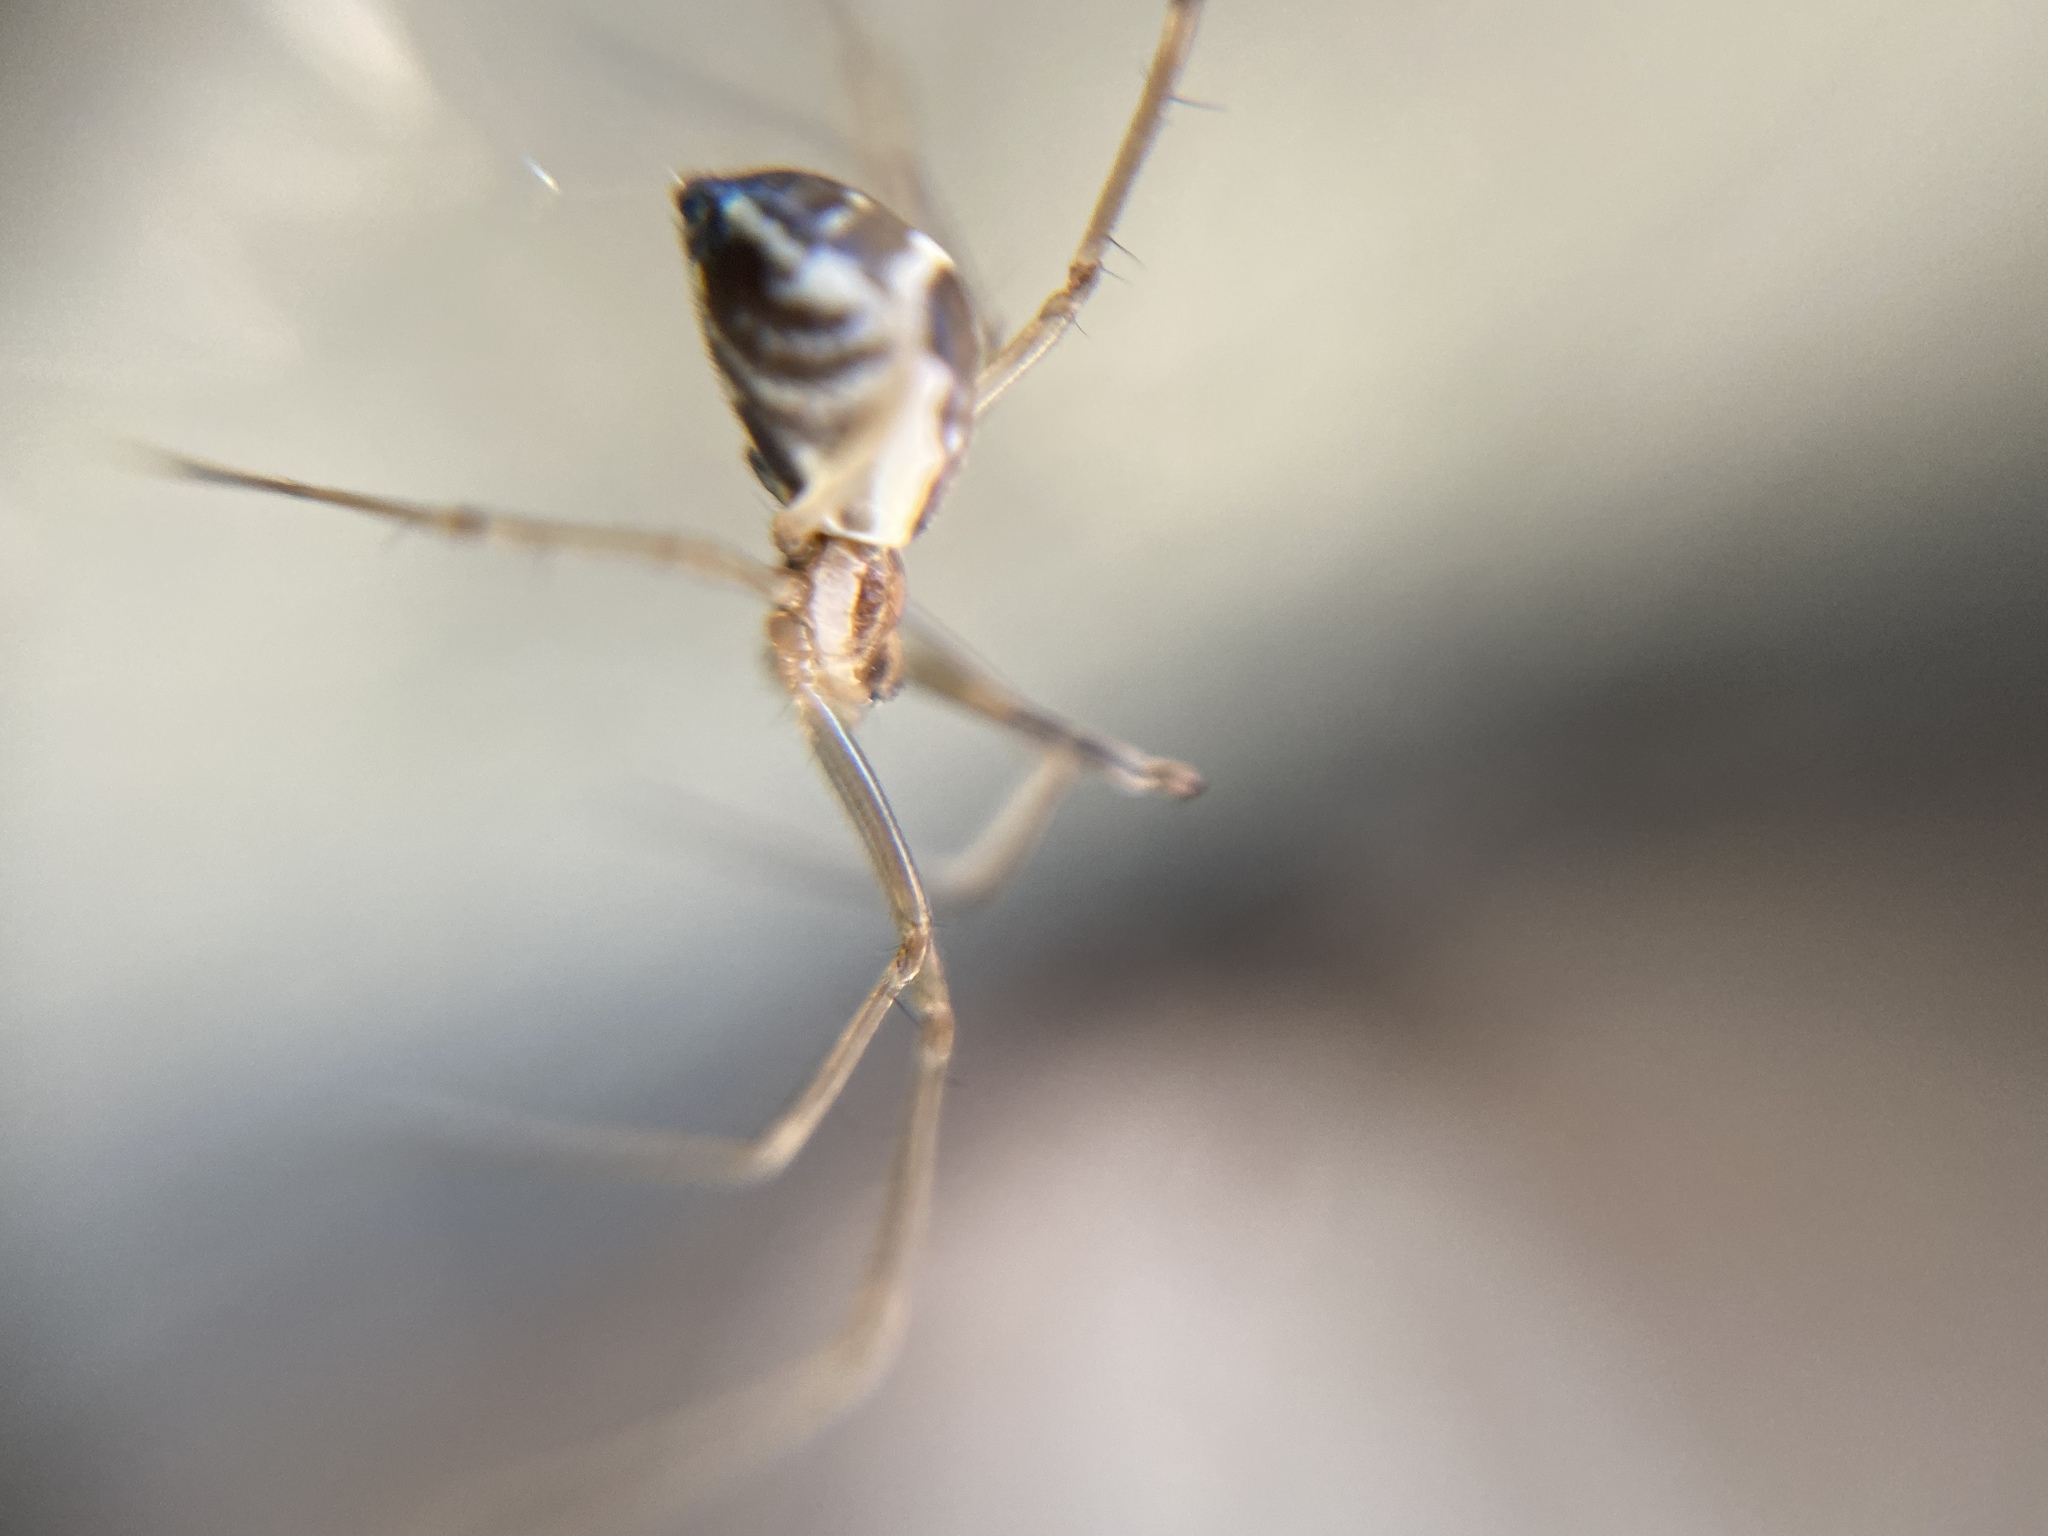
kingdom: Animalia
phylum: Arthropoda
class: Arachnida
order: Araneae
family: Linyphiidae
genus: Neriene
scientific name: Neriene radiata
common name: Filmy dome spider
